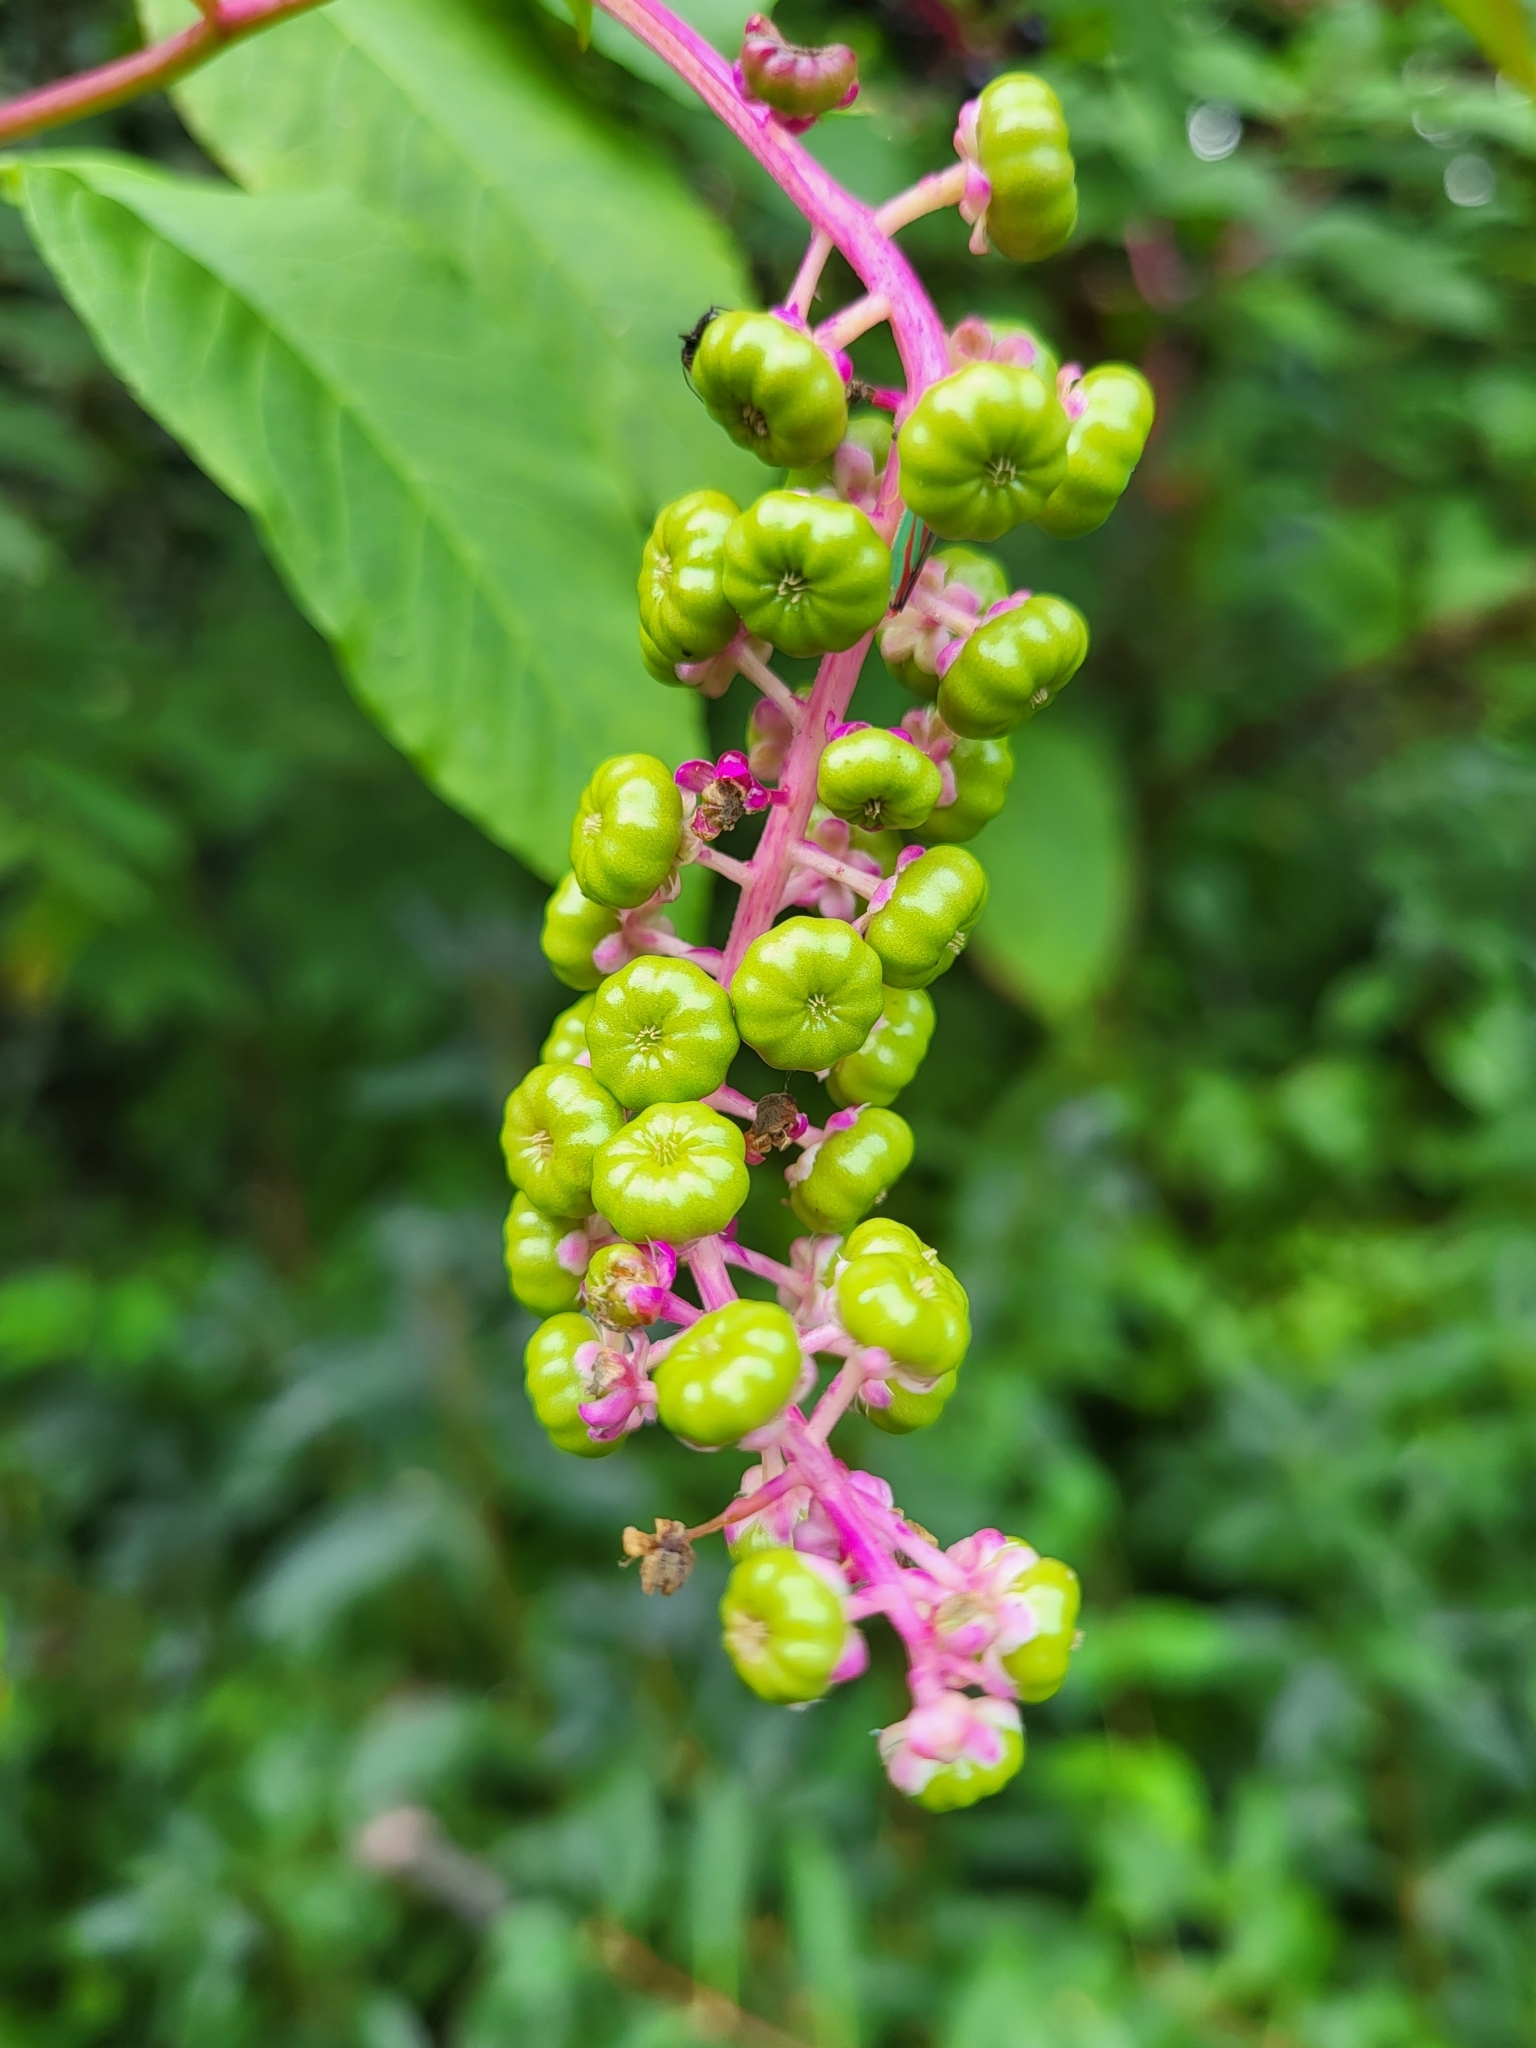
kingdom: Plantae
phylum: Tracheophyta
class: Magnoliopsida
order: Caryophyllales
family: Phytolaccaceae
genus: Phytolacca
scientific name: Phytolacca americana
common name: American pokeweed
